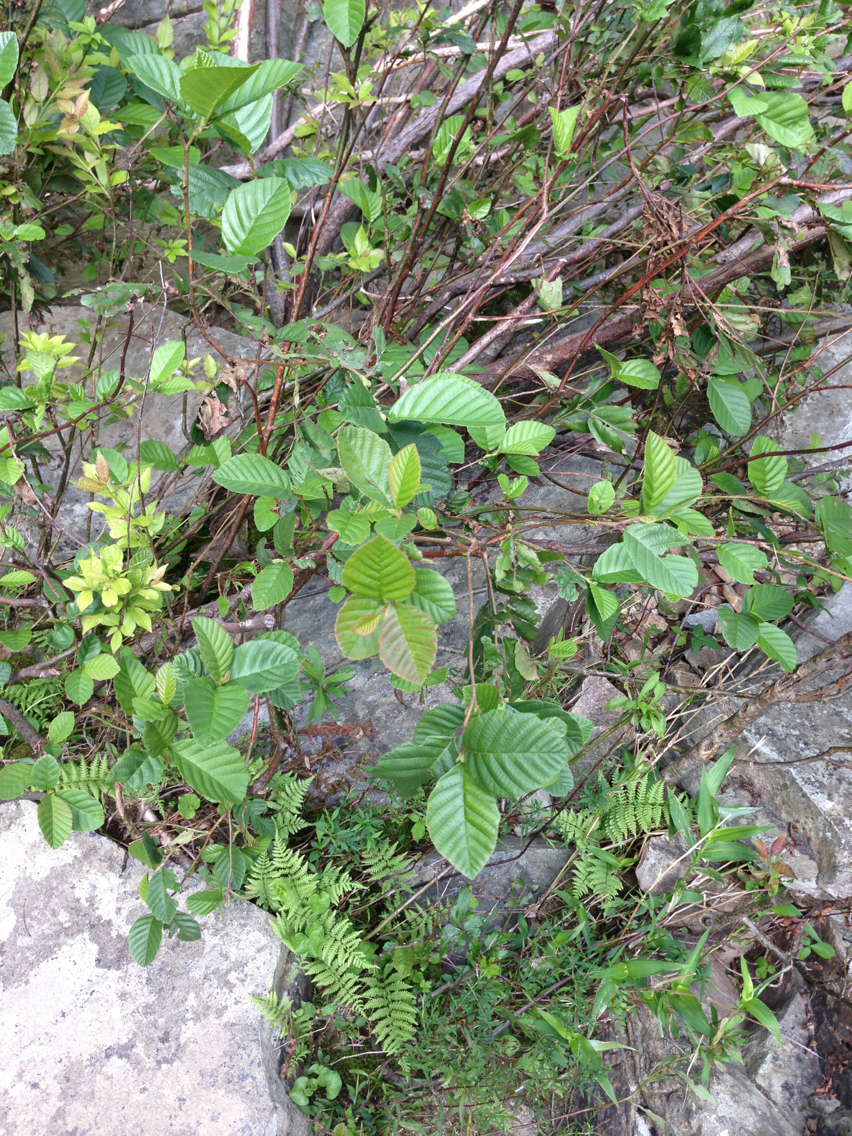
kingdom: Plantae
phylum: Tracheophyta
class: Magnoliopsida
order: Fagales
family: Betulaceae
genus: Alnus
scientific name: Alnus serrulata
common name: Hazel alder
